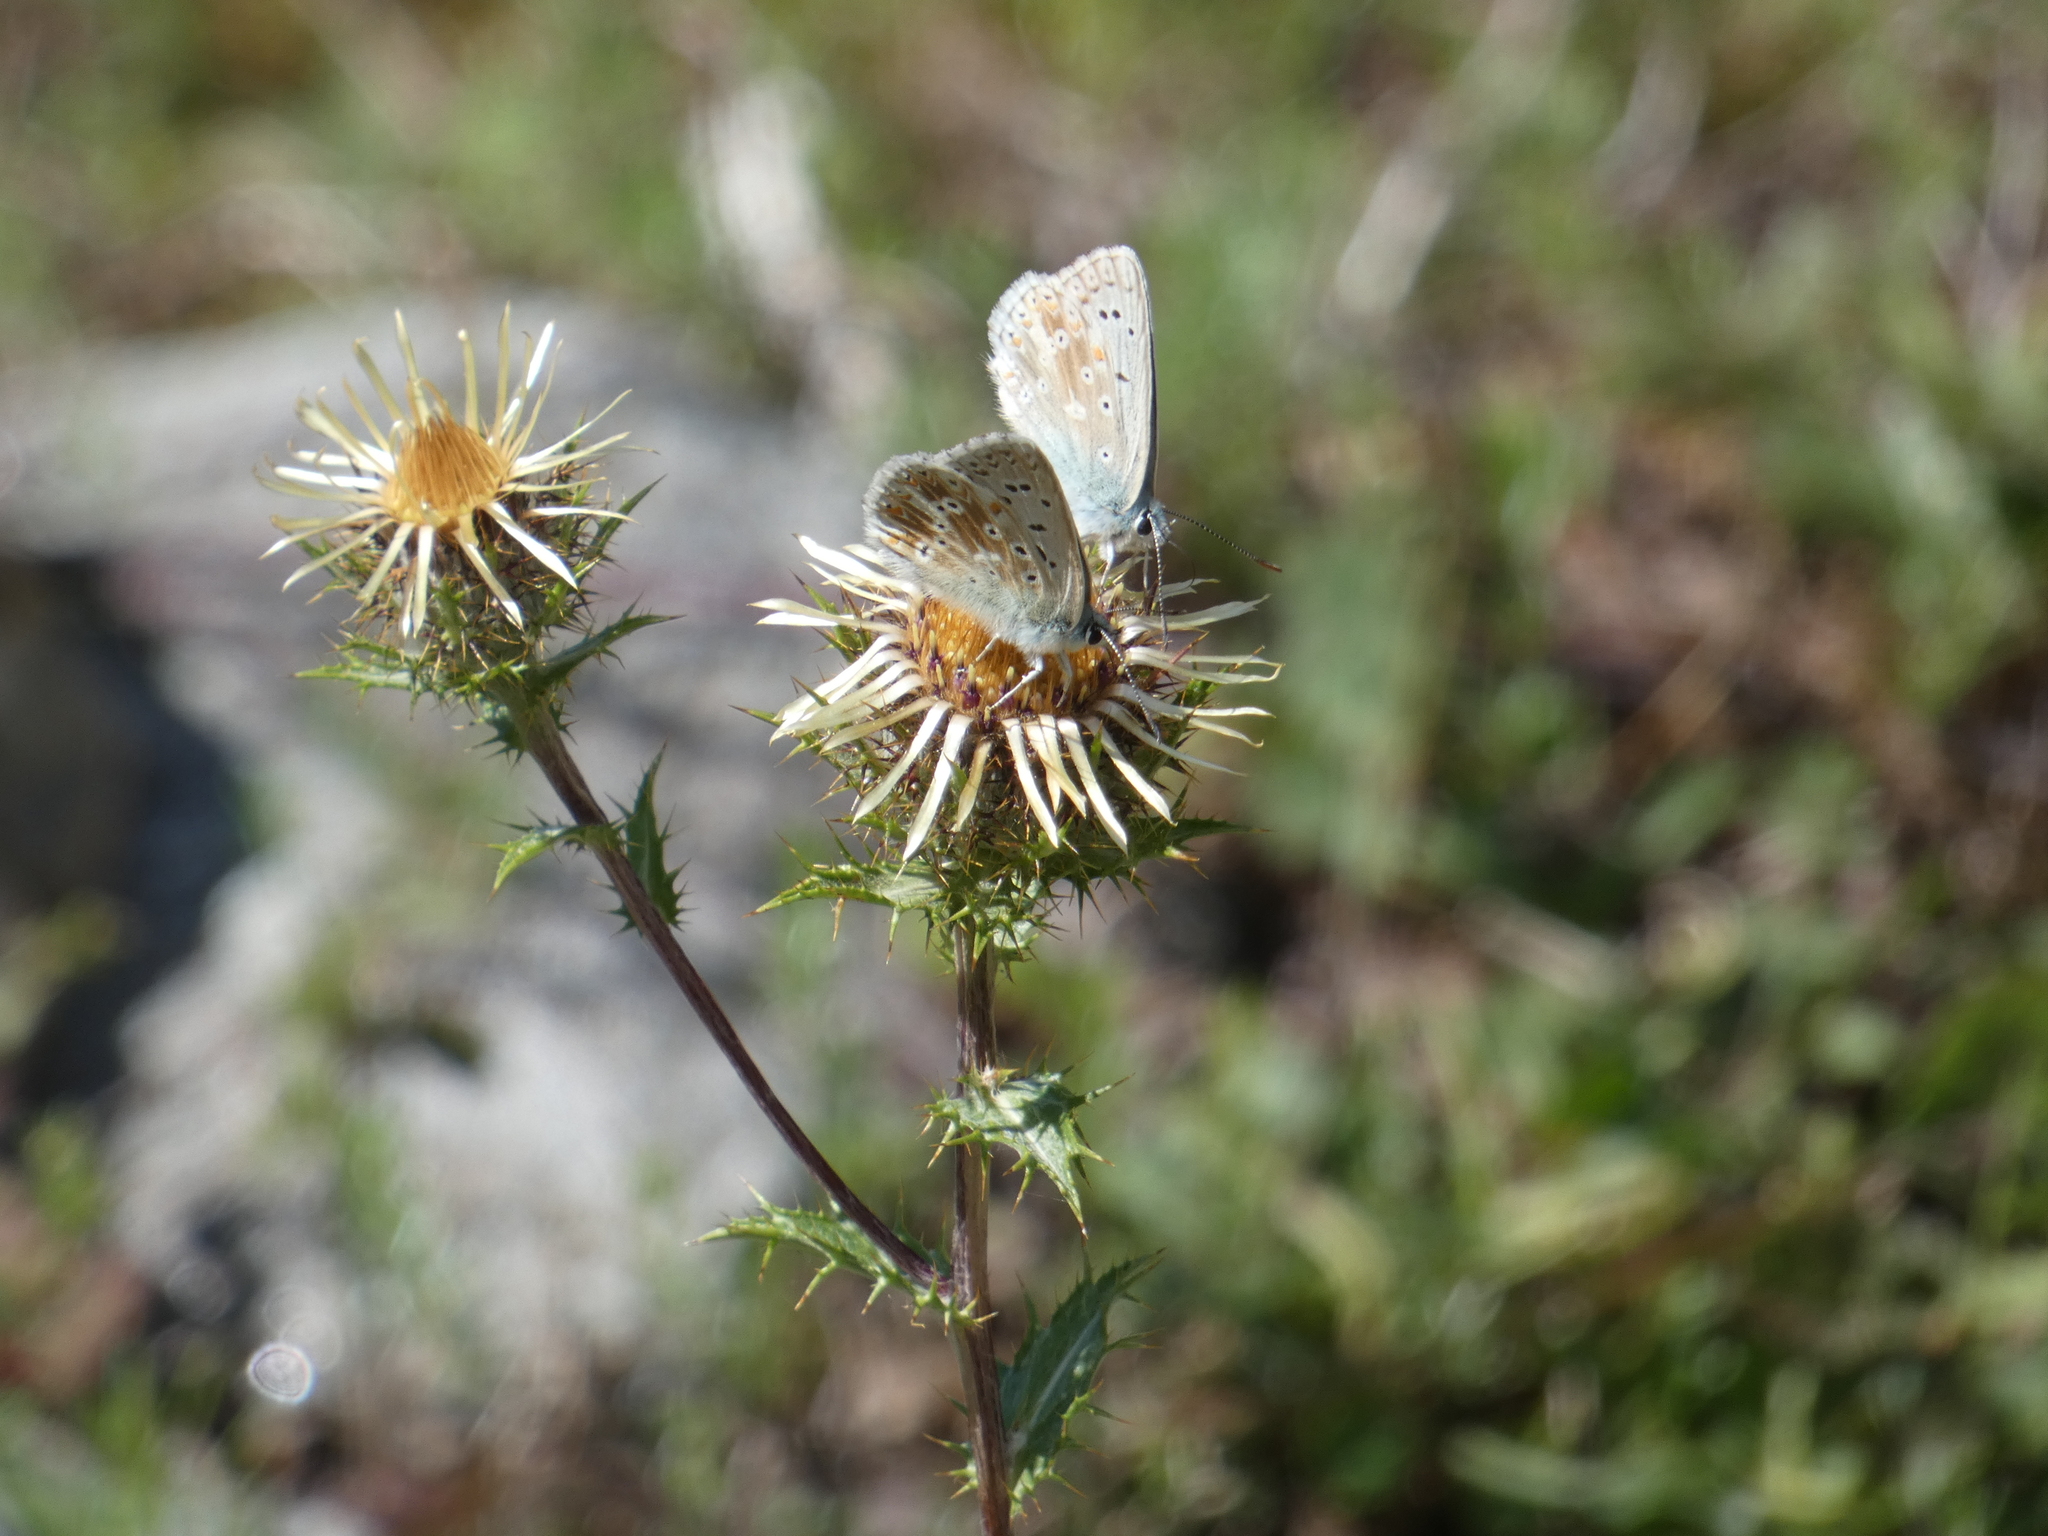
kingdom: Animalia
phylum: Arthropoda
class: Insecta
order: Lepidoptera
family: Lycaenidae
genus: Lysandra
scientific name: Lysandra coridon
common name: Chalkhill blue
